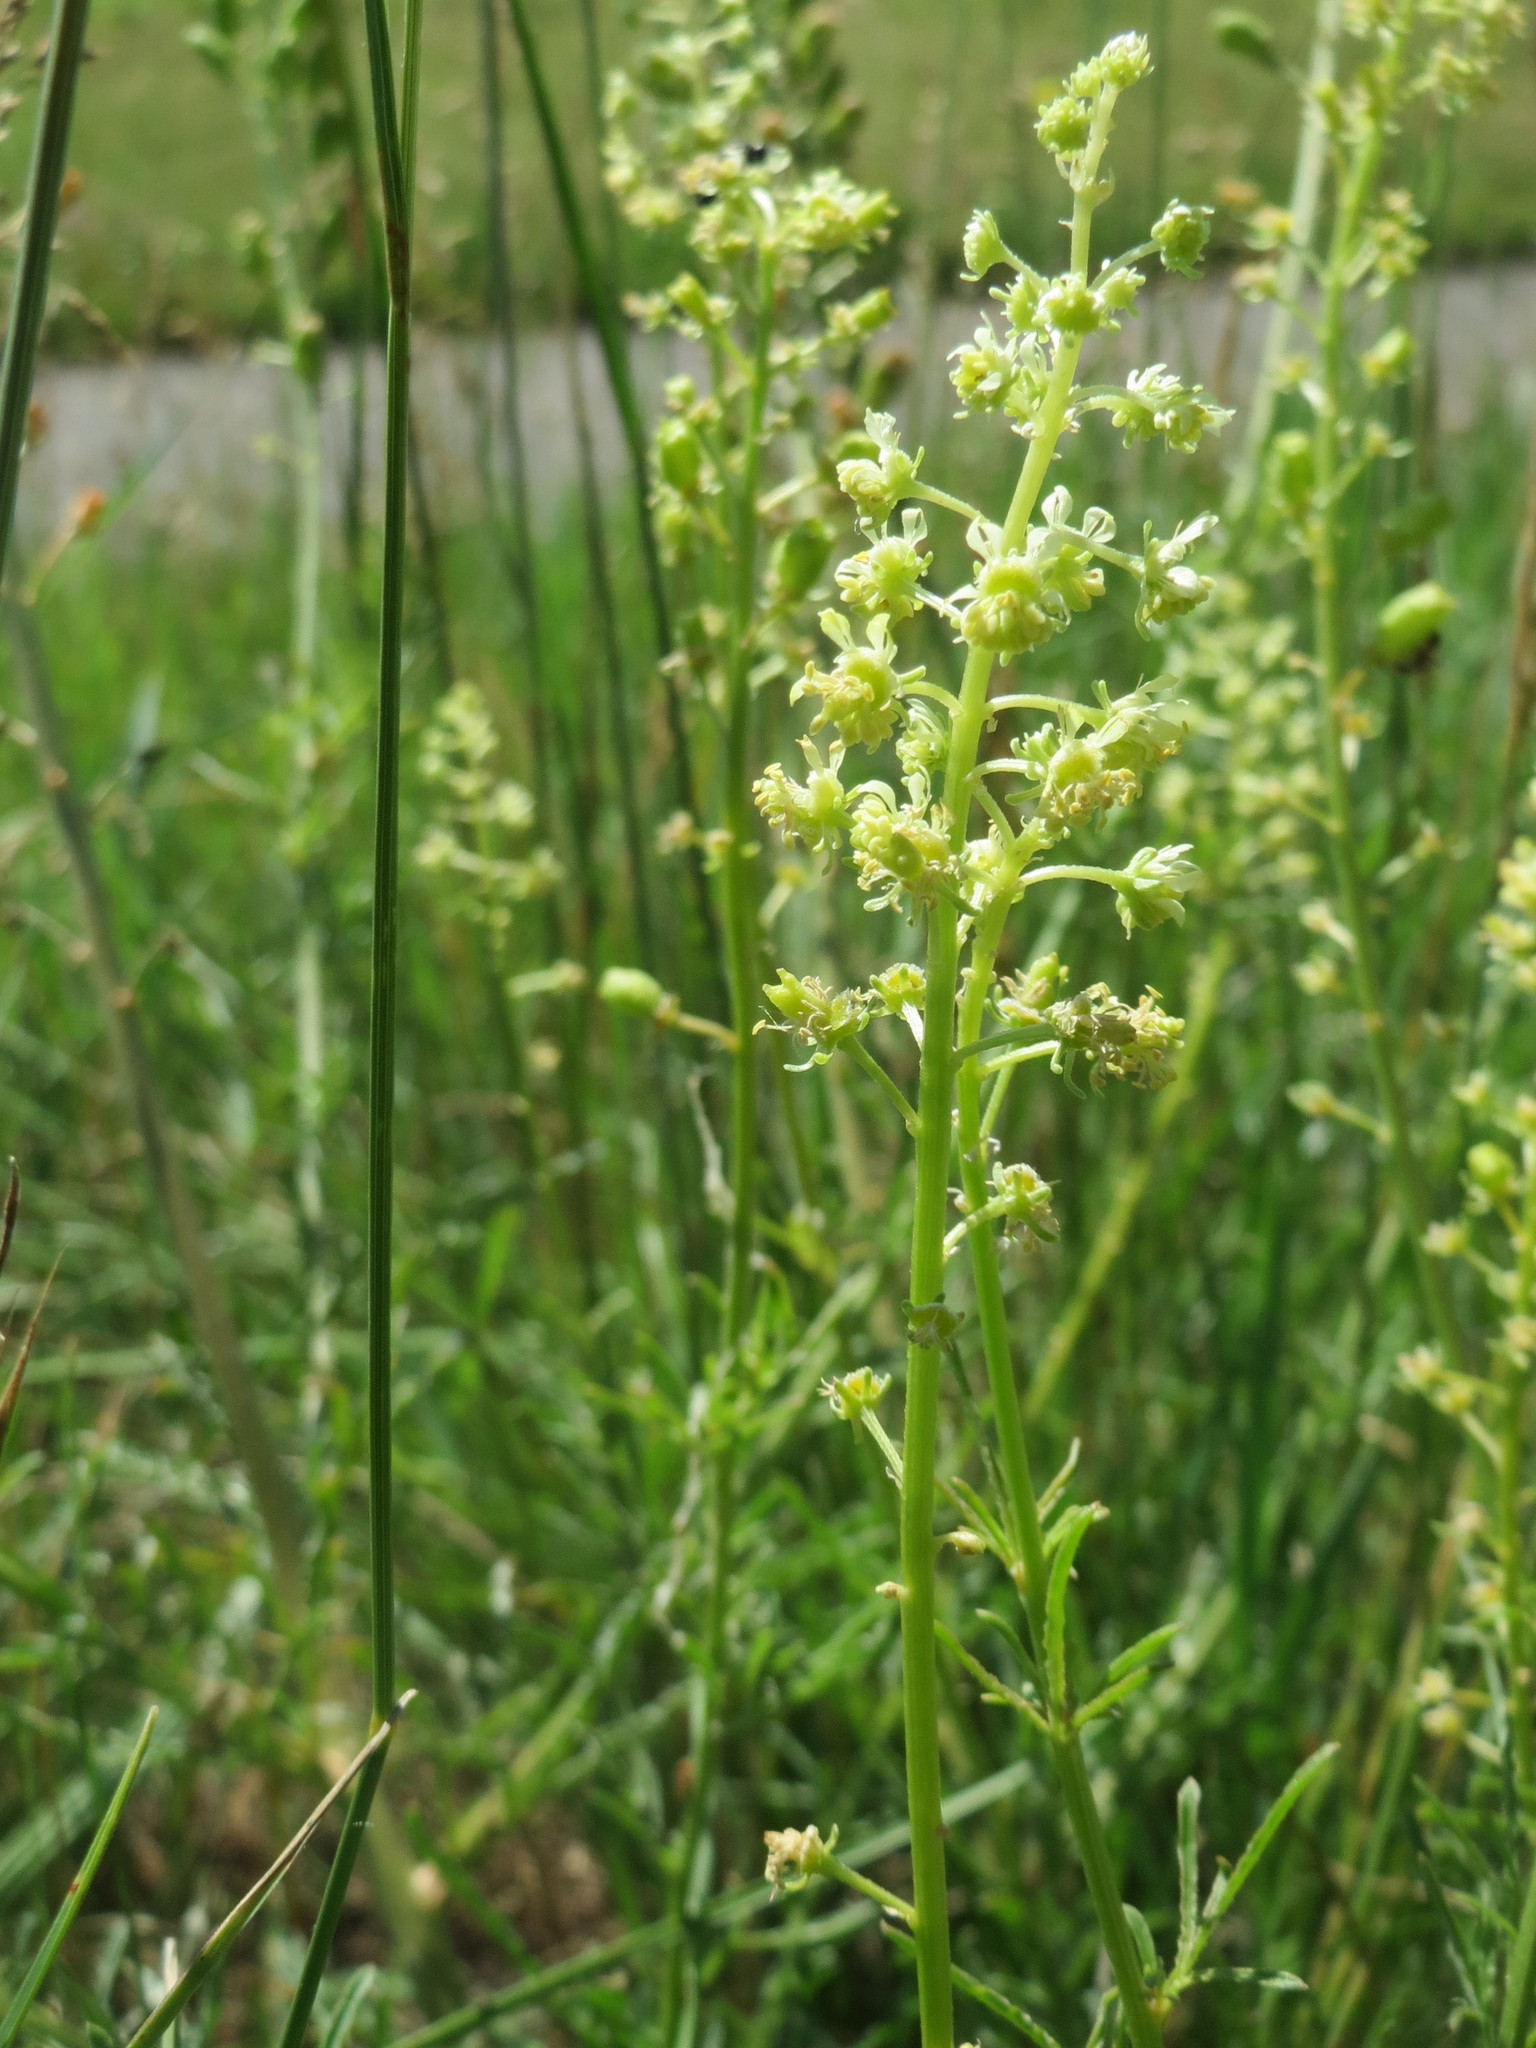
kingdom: Plantae
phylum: Tracheophyta
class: Magnoliopsida
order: Brassicales
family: Resedaceae
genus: Reseda
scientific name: Reseda lutea
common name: Wild mignonette
